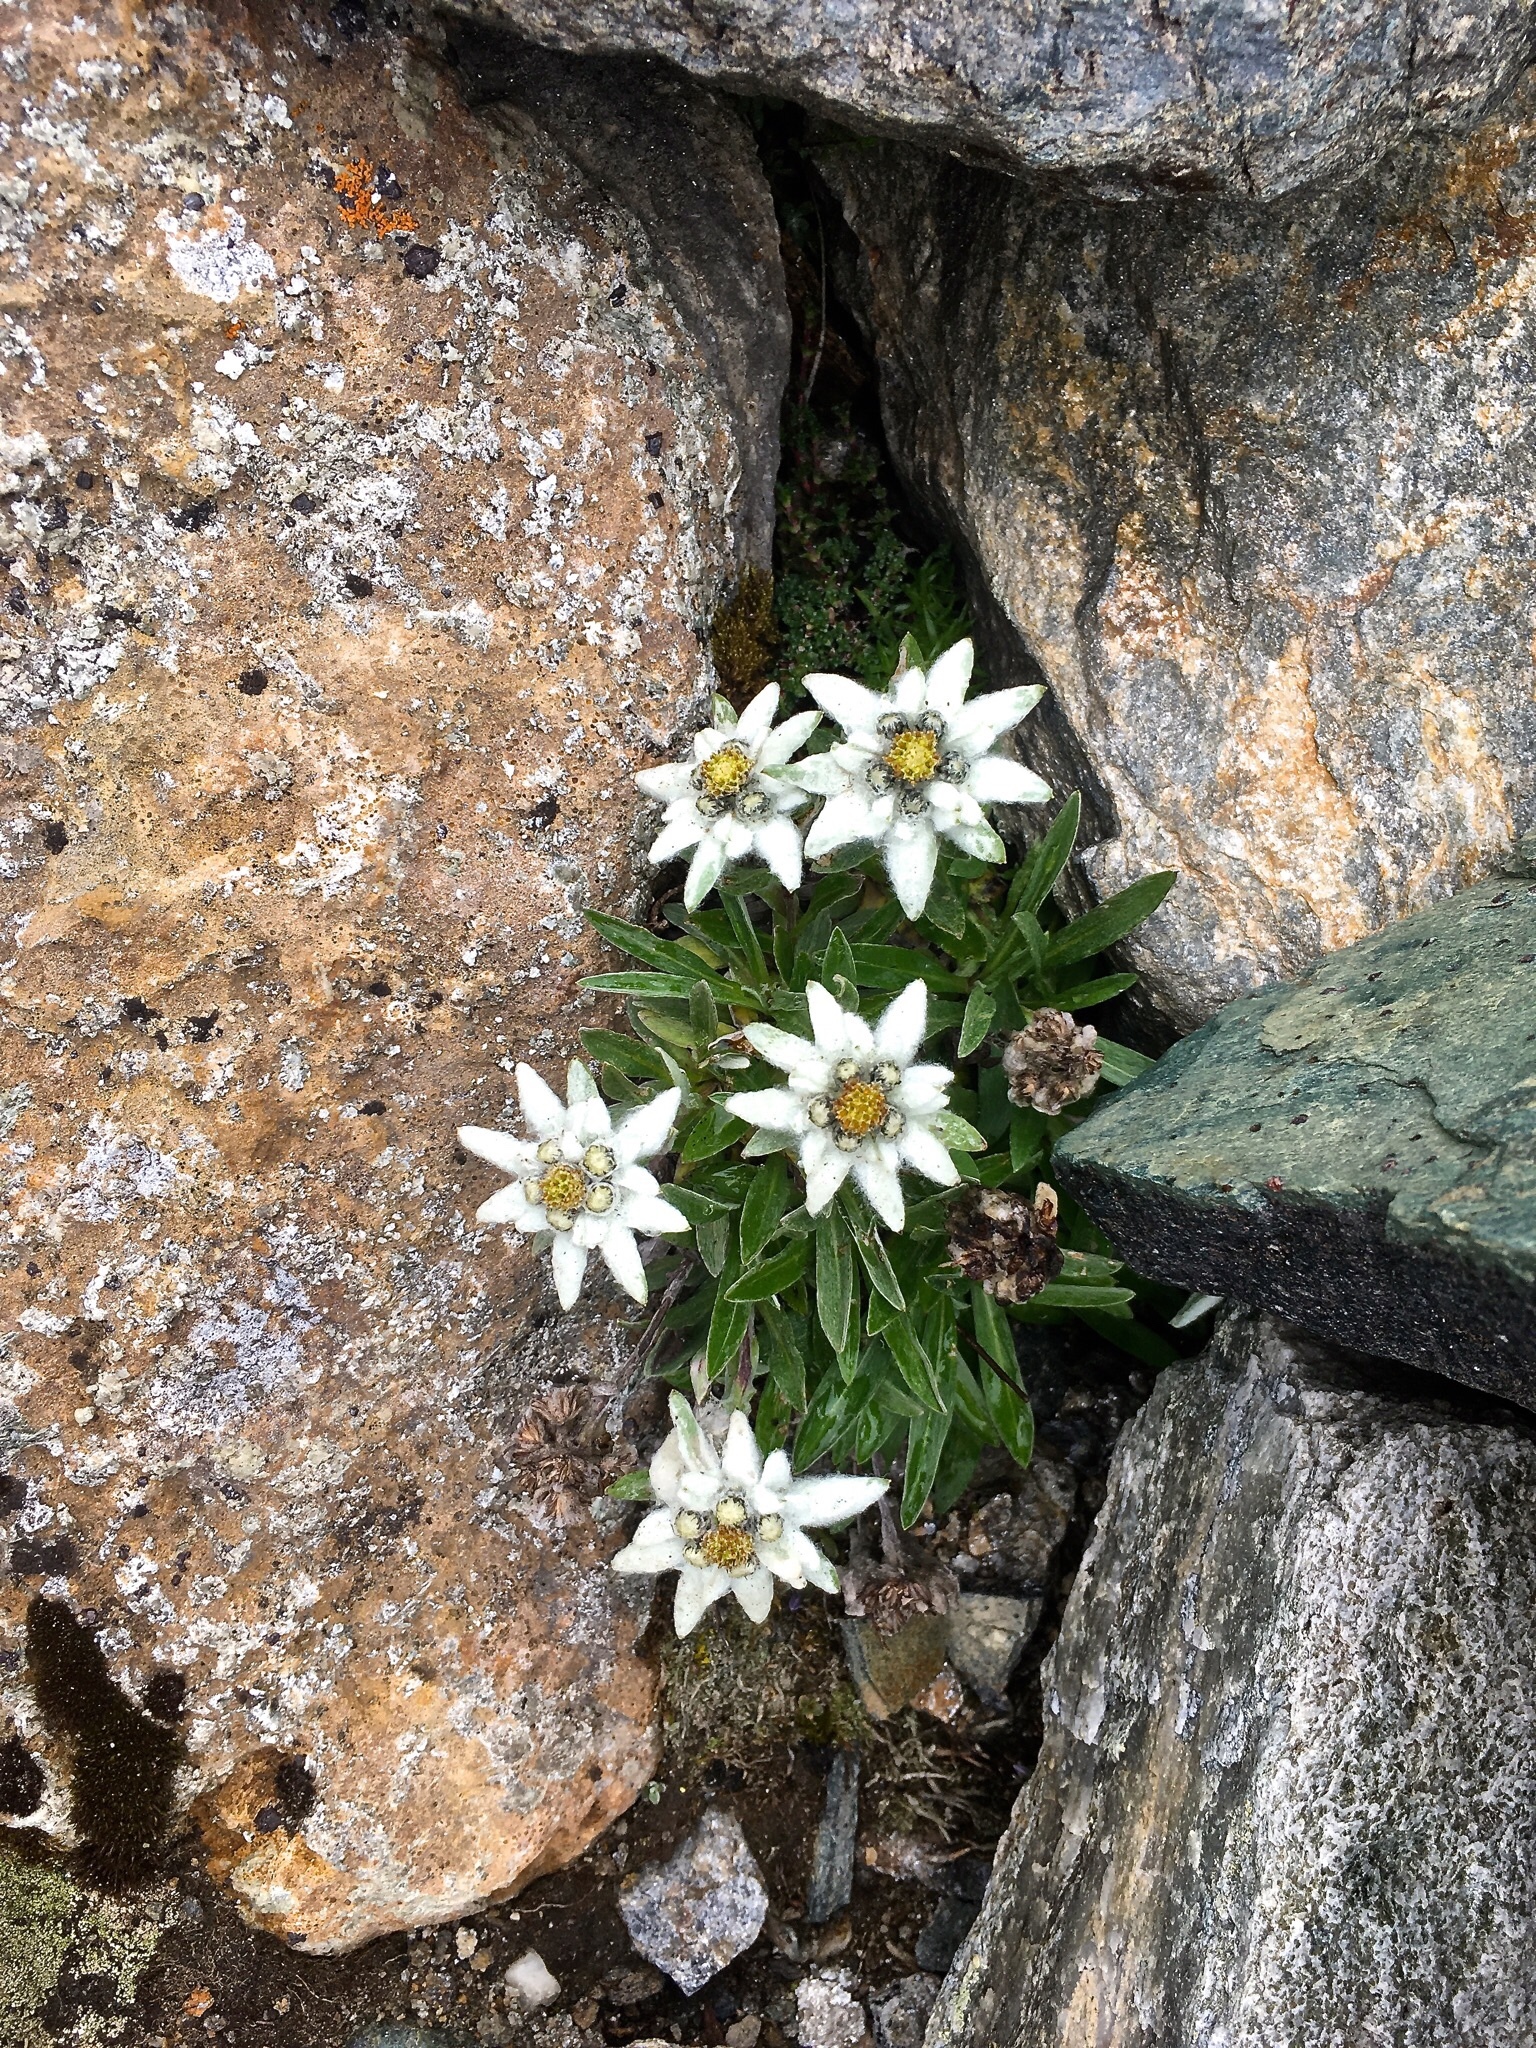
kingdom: Plantae
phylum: Tracheophyta
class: Magnoliopsida
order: Asterales
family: Asteraceae
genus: Leontopodium
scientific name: Leontopodium nivale
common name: Edelweiss
